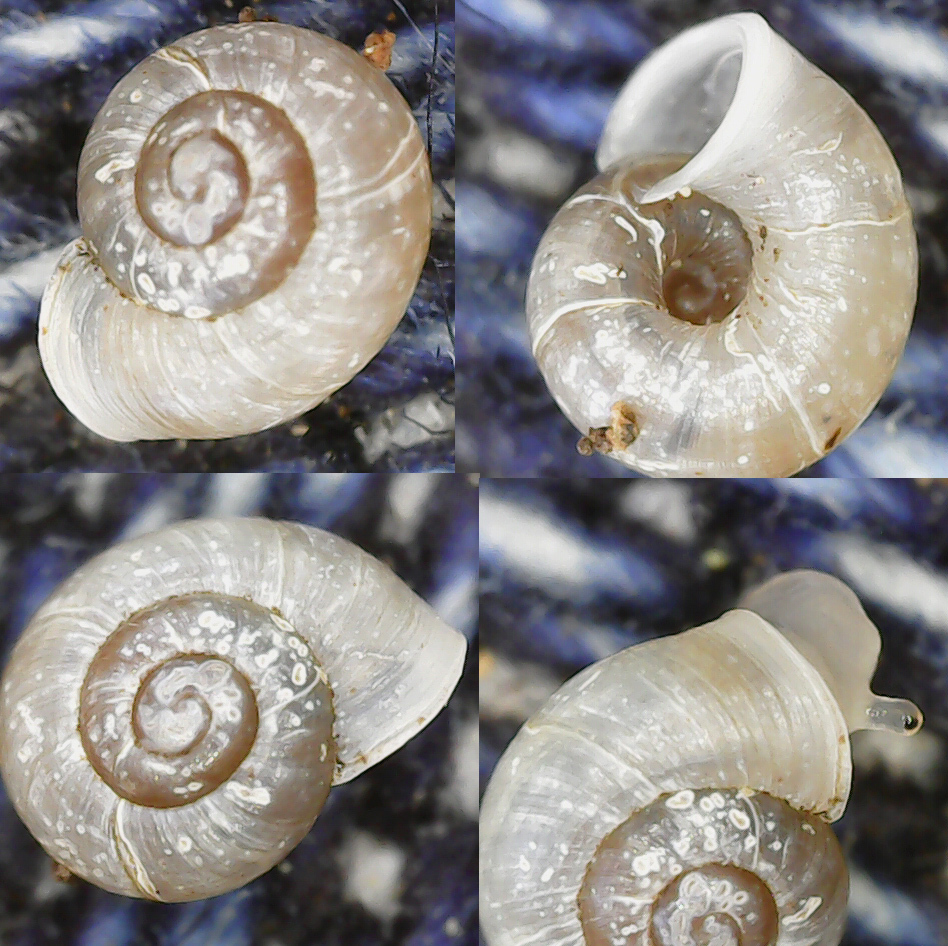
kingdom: Animalia
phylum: Mollusca
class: Gastropoda
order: Stylommatophora
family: Valloniidae
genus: Vallonia
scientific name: Vallonia excentrica
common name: Eccentric grass snail
